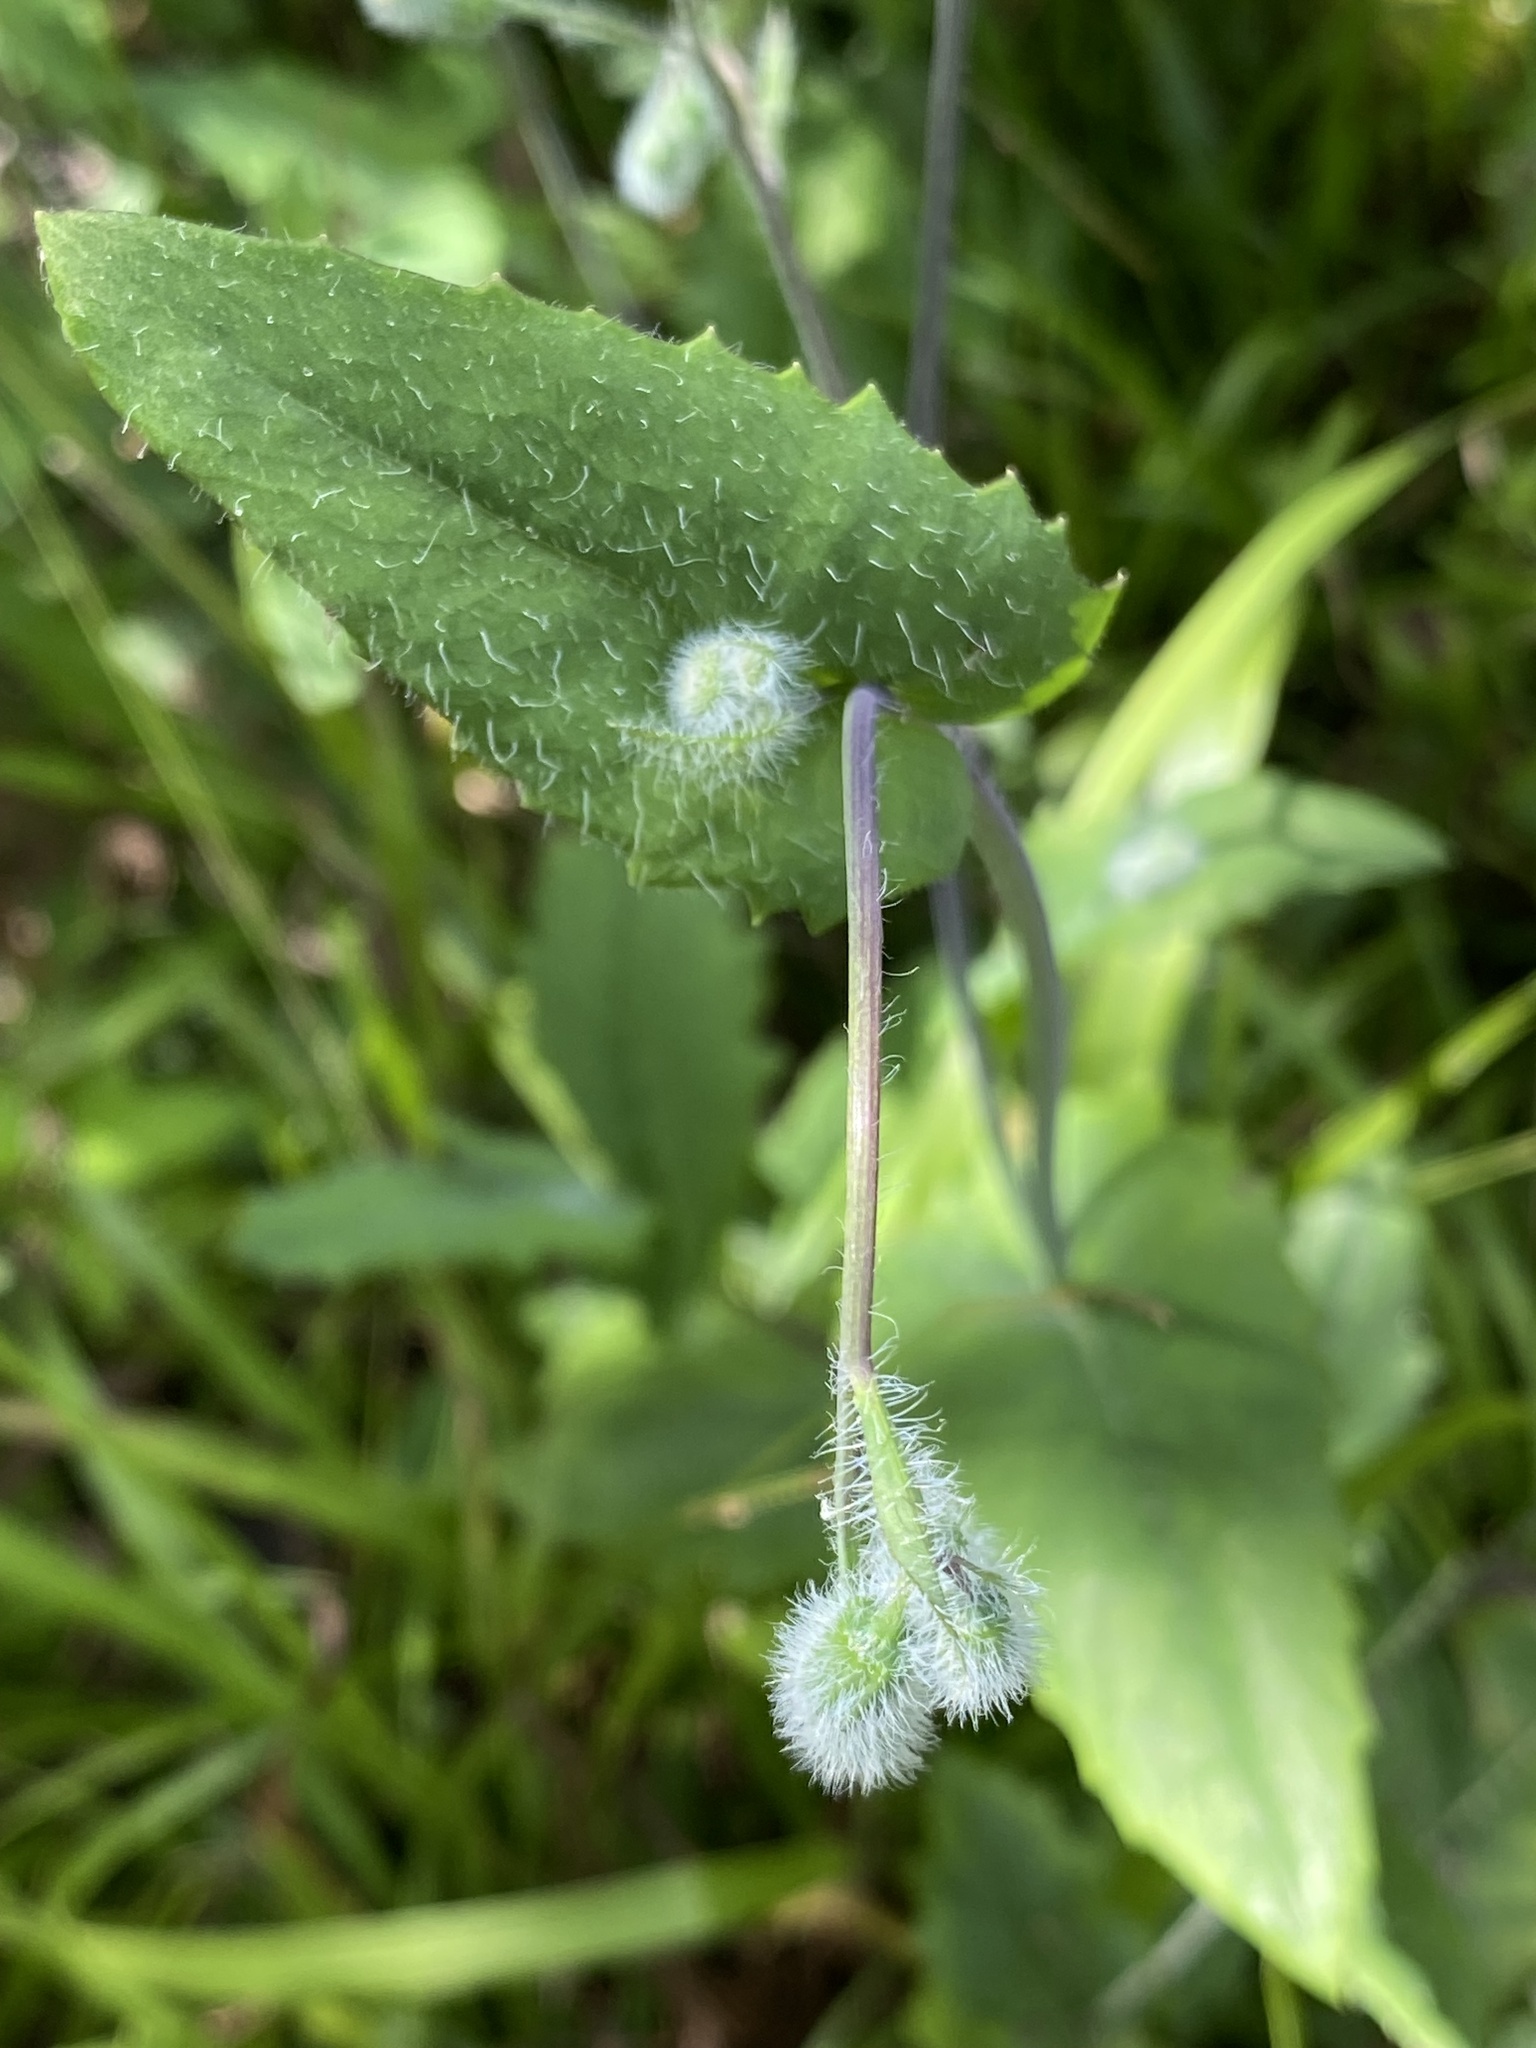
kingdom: Plantae
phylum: Tracheophyta
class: Magnoliopsida
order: Asterales
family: Asteraceae
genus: Emilia
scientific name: Emilia praetermissa
